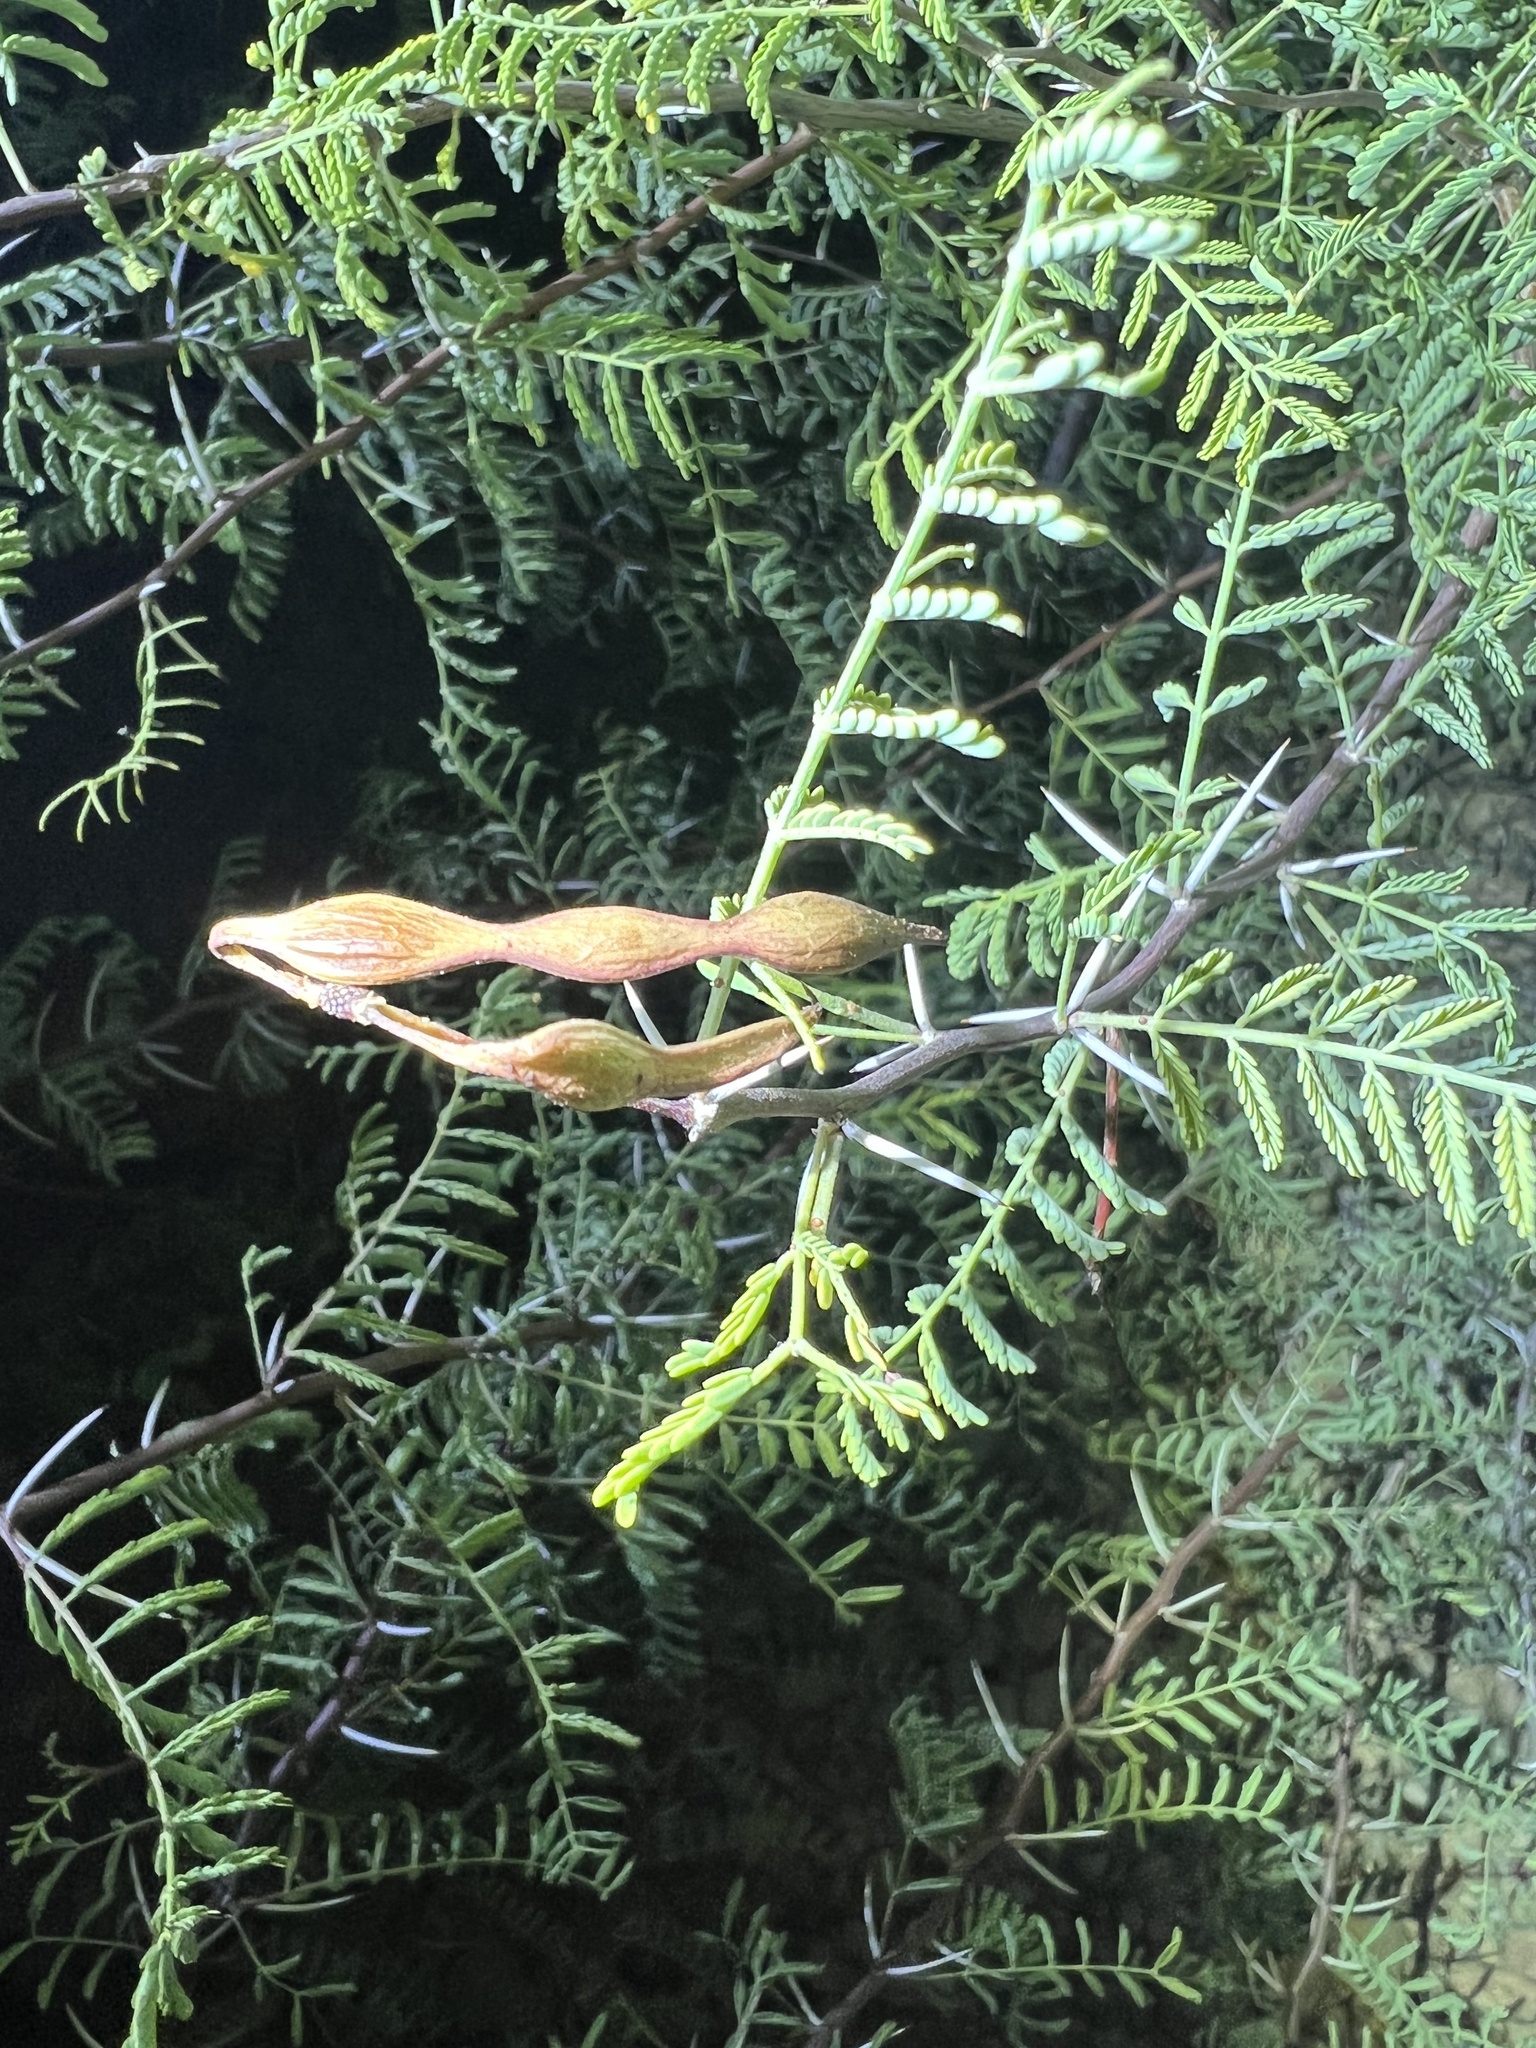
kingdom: Plantae
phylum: Tracheophyta
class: Magnoliopsida
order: Fabales
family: Fabaceae
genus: Vachellia
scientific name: Vachellia constricta
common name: Mescat acacia
